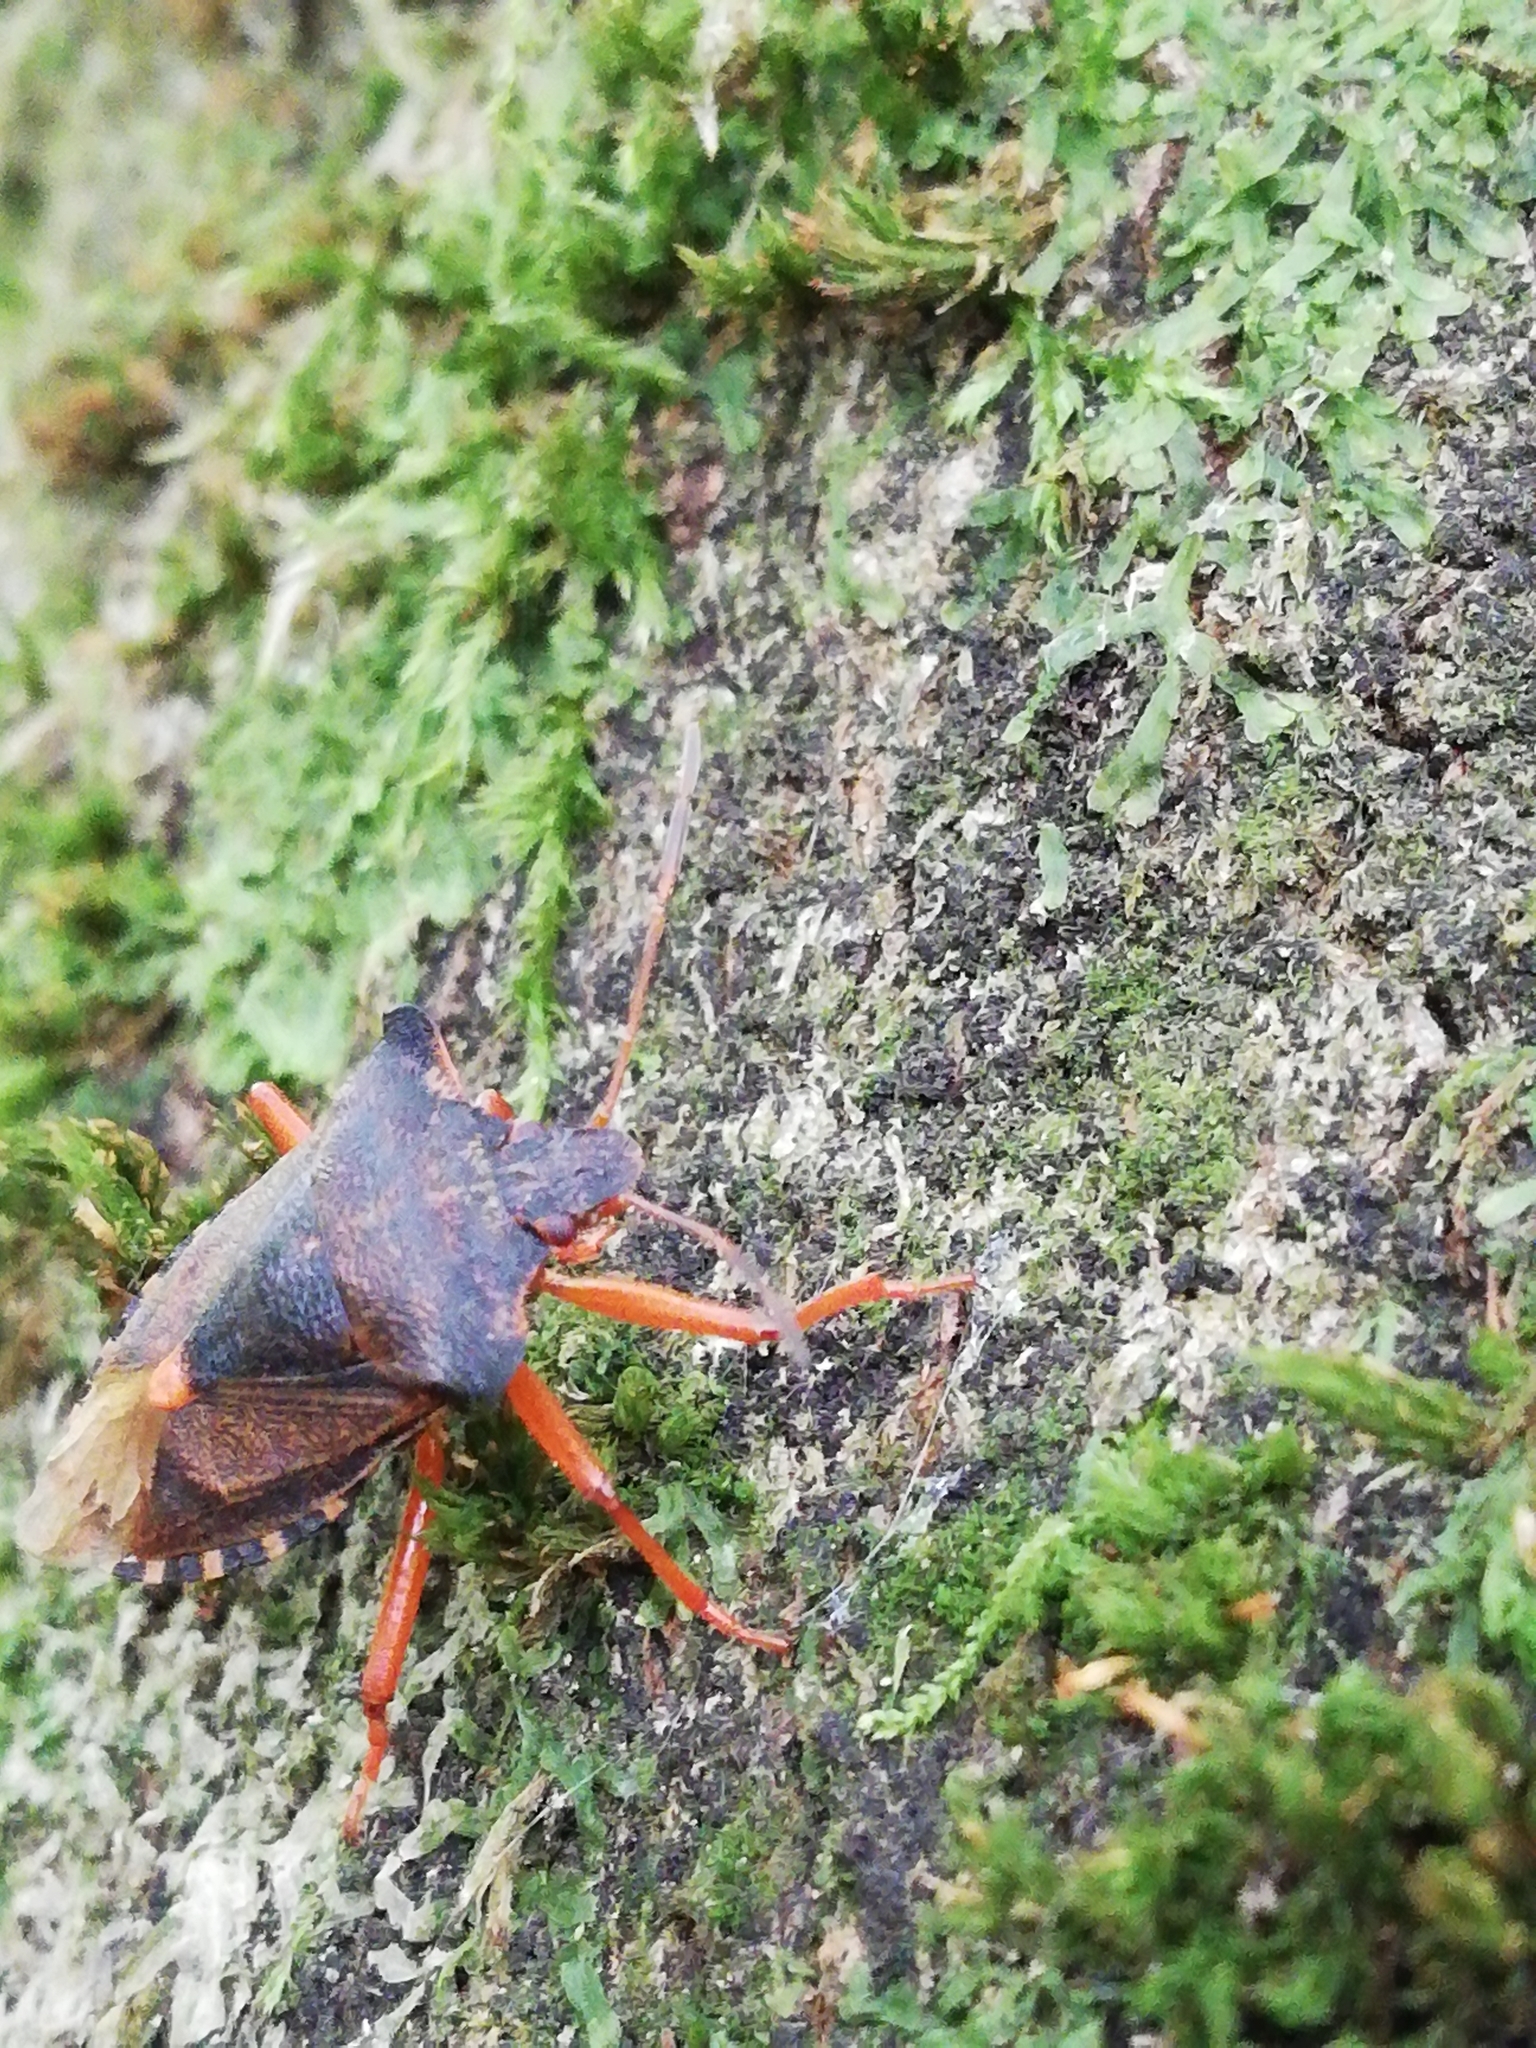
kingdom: Animalia
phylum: Arthropoda
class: Insecta
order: Hemiptera
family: Pentatomidae
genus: Pentatoma
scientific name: Pentatoma rufipes
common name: Forest bug
